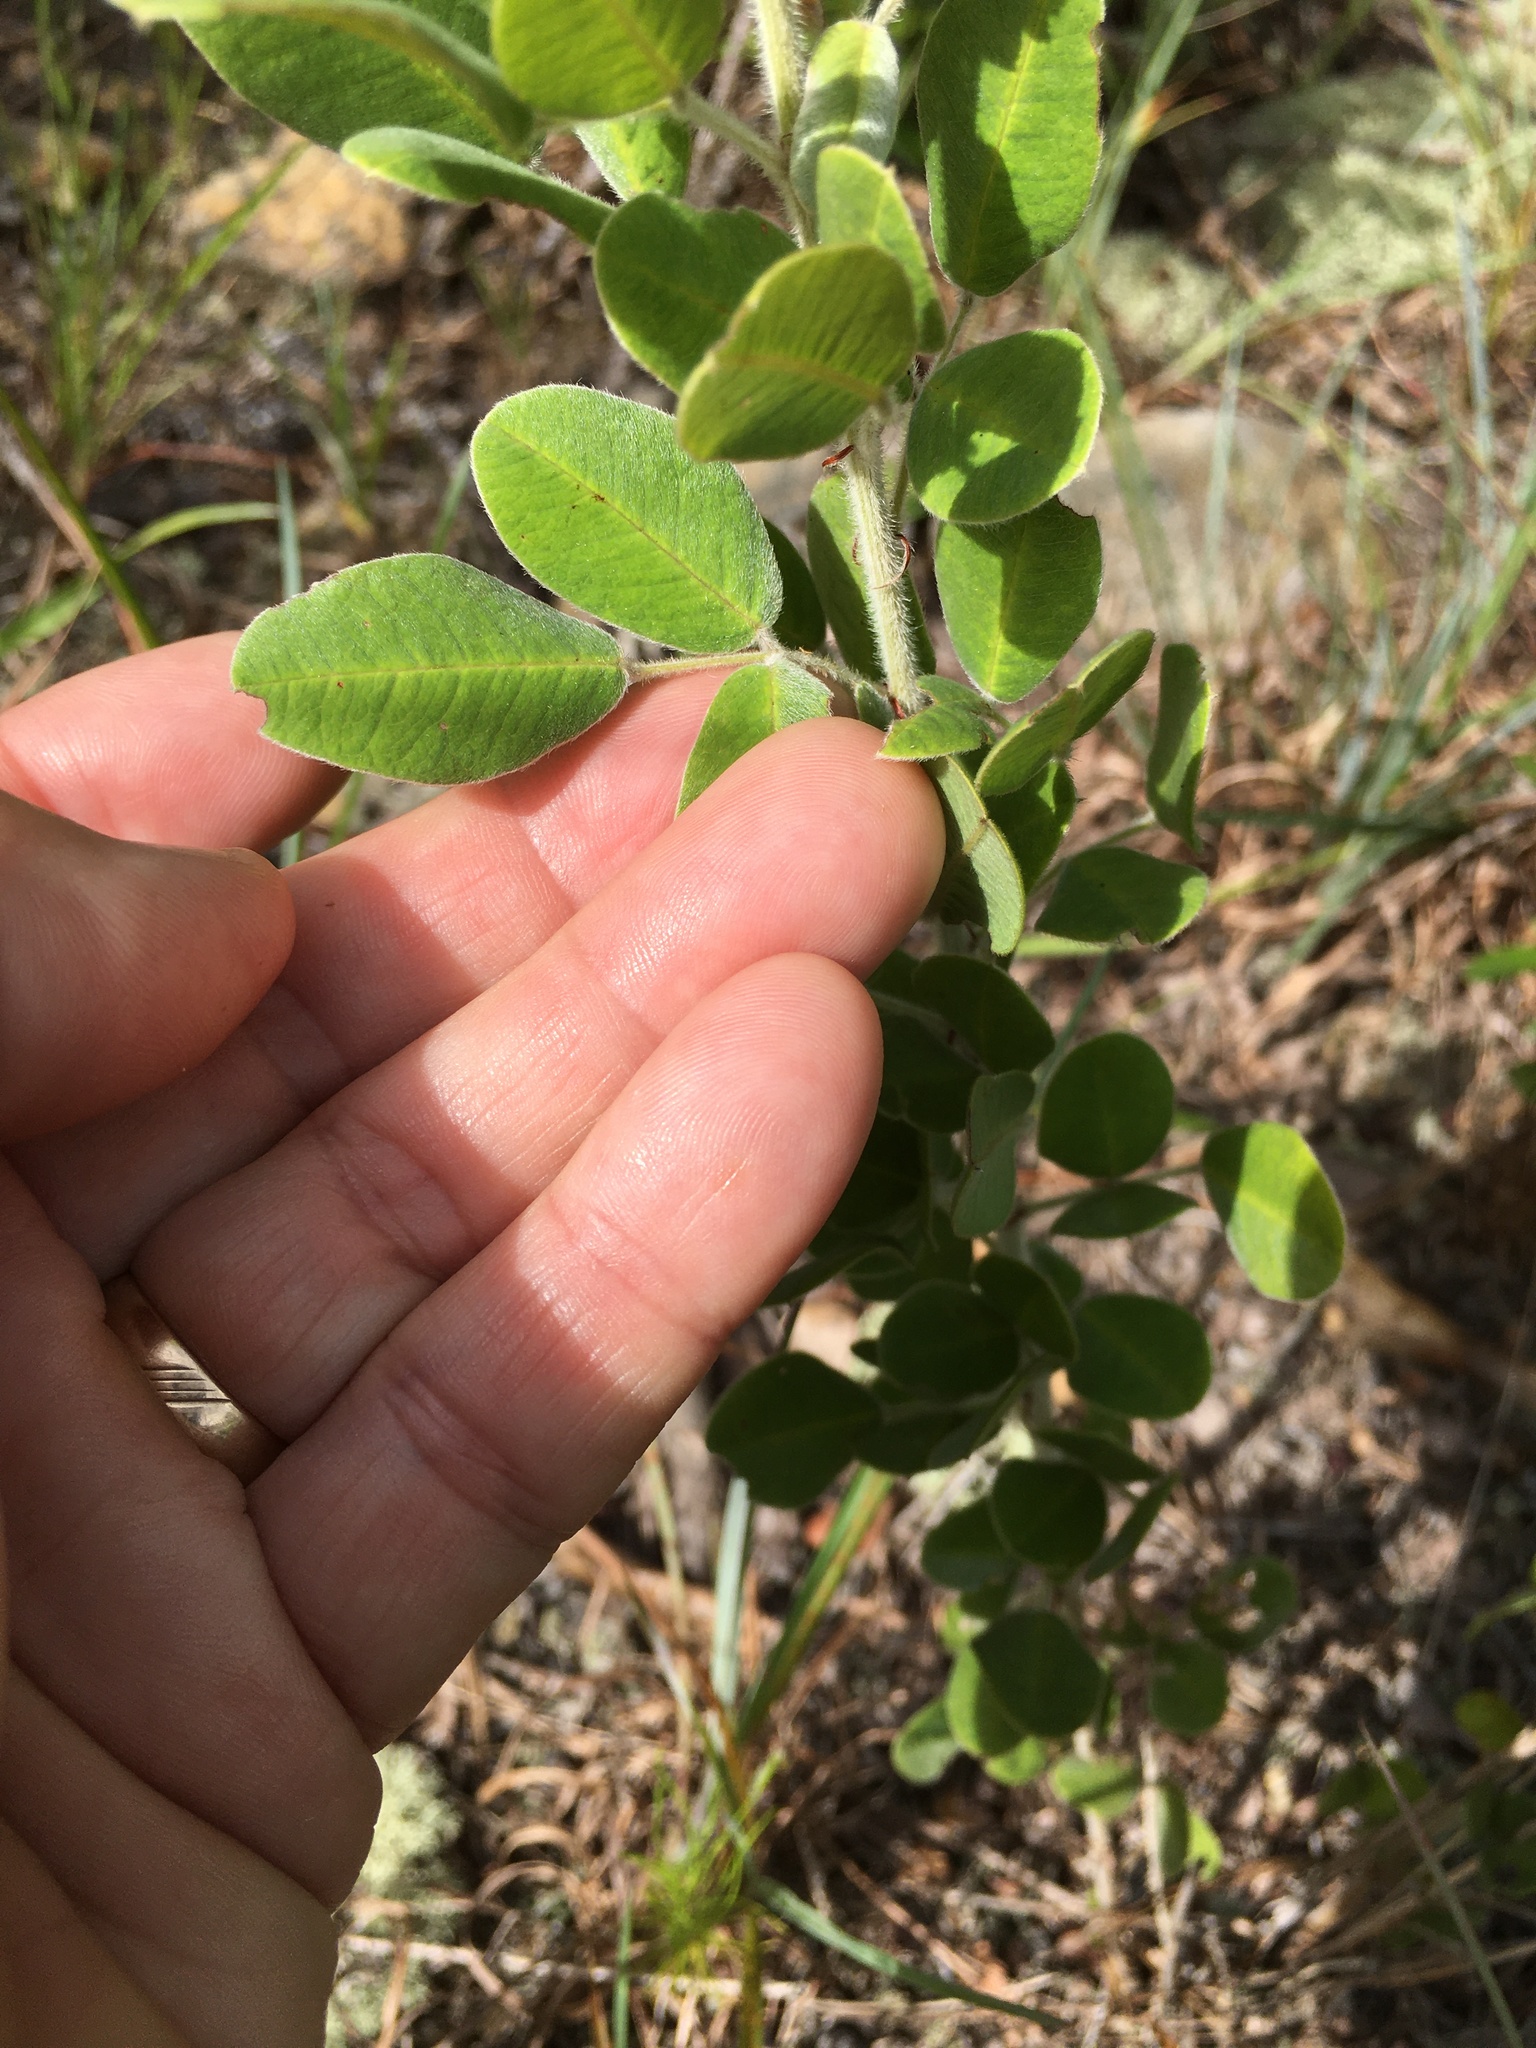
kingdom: Plantae
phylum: Tracheophyta
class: Magnoliopsida
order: Fabales
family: Fabaceae
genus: Lespedeza
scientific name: Lespedeza hirta
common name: Hairy lespedeza
